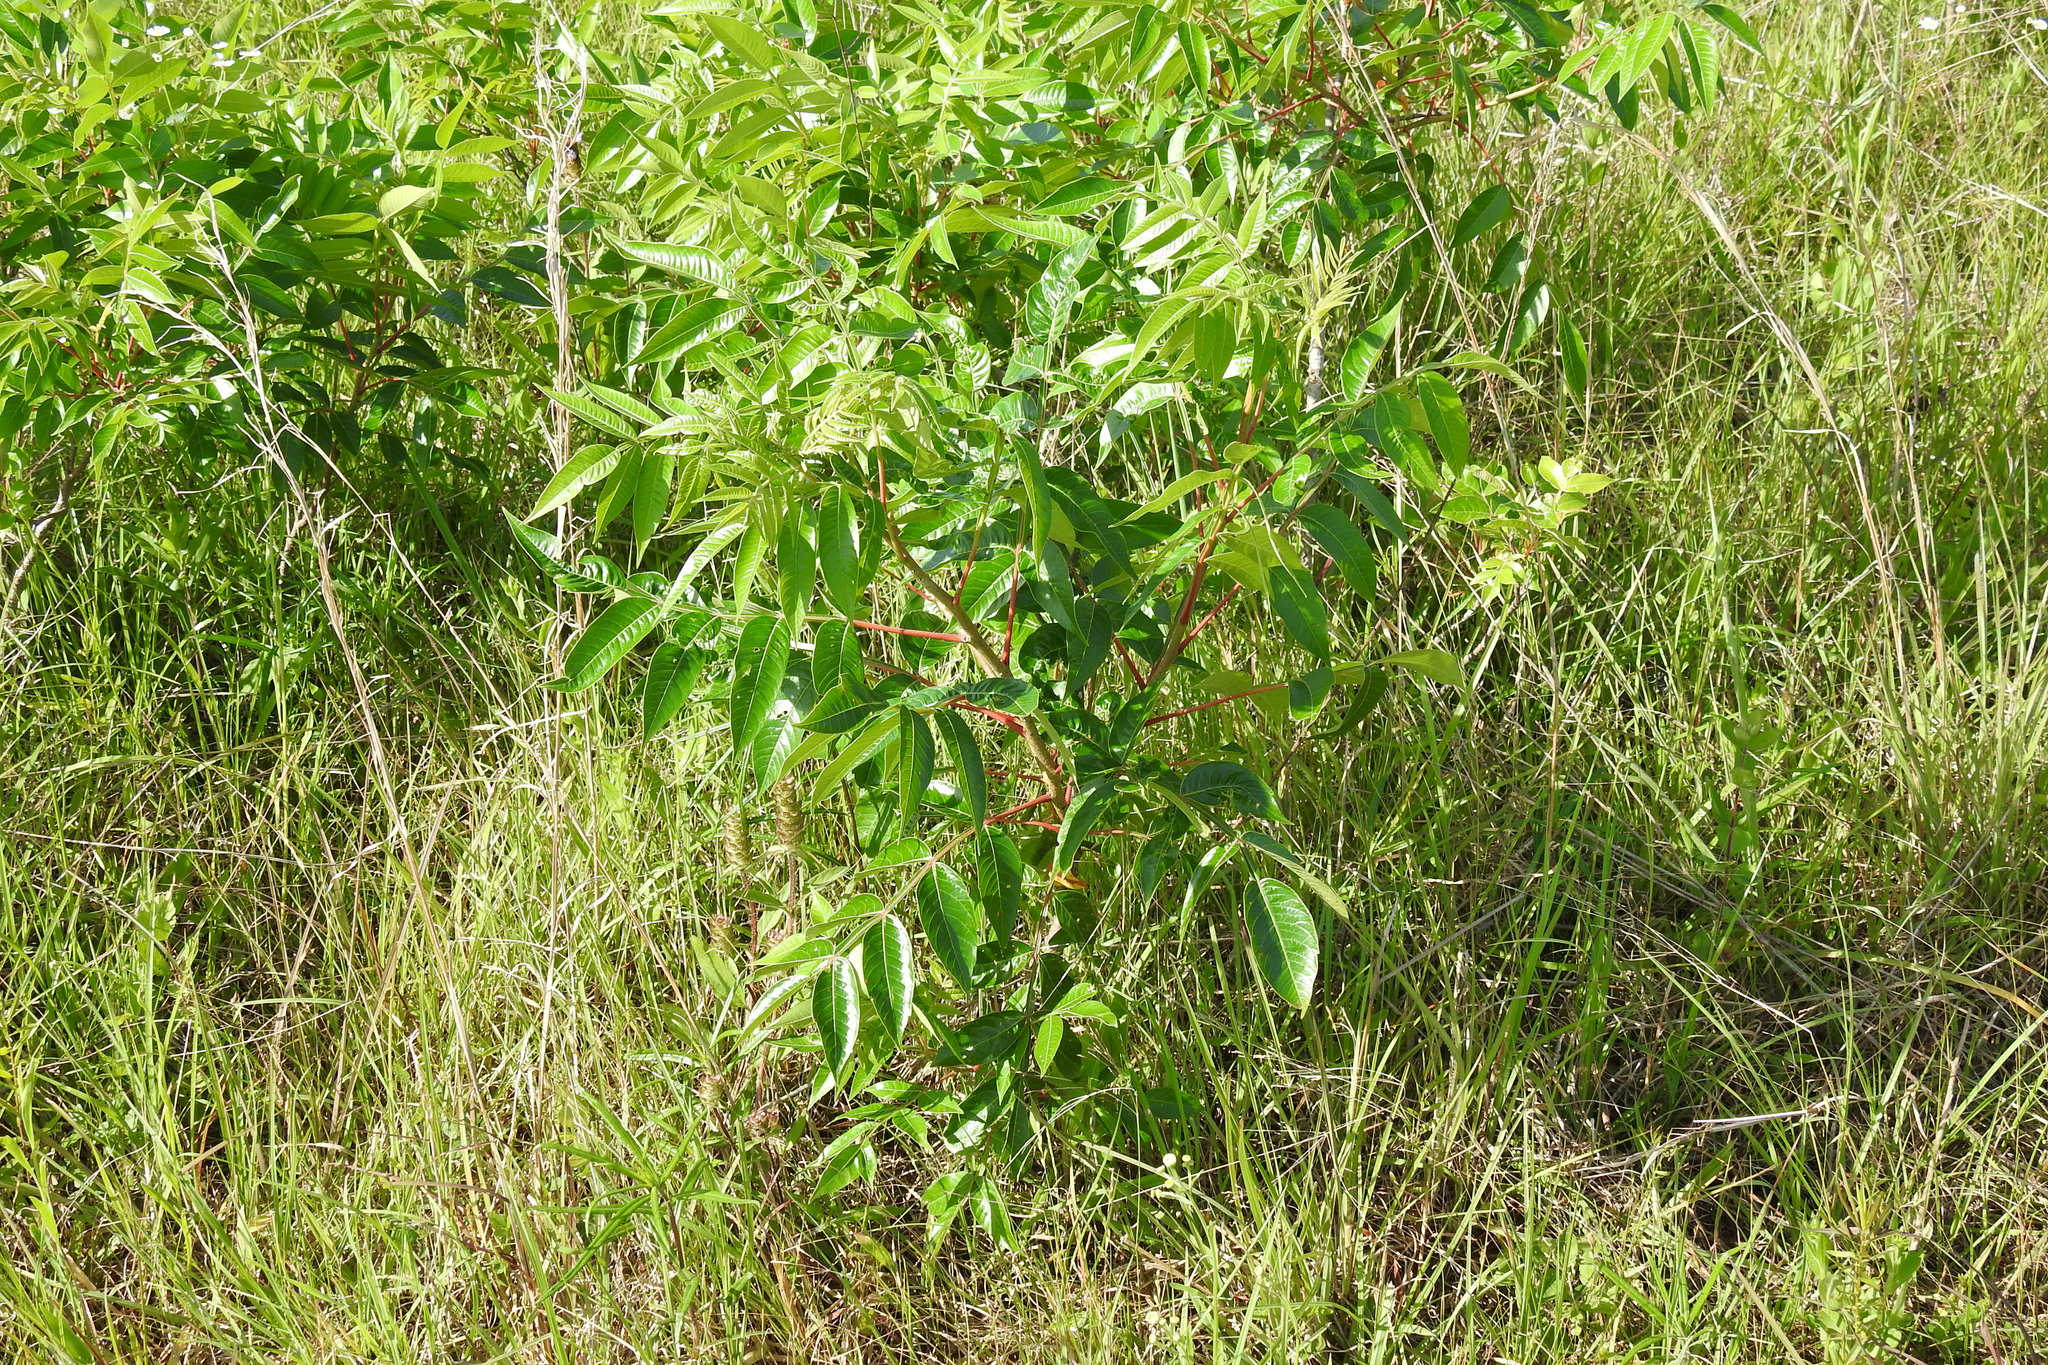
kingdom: Plantae
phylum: Tracheophyta
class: Magnoliopsida
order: Sapindales
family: Anacardiaceae
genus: Rhus
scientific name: Rhus copallina
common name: Shining sumac
